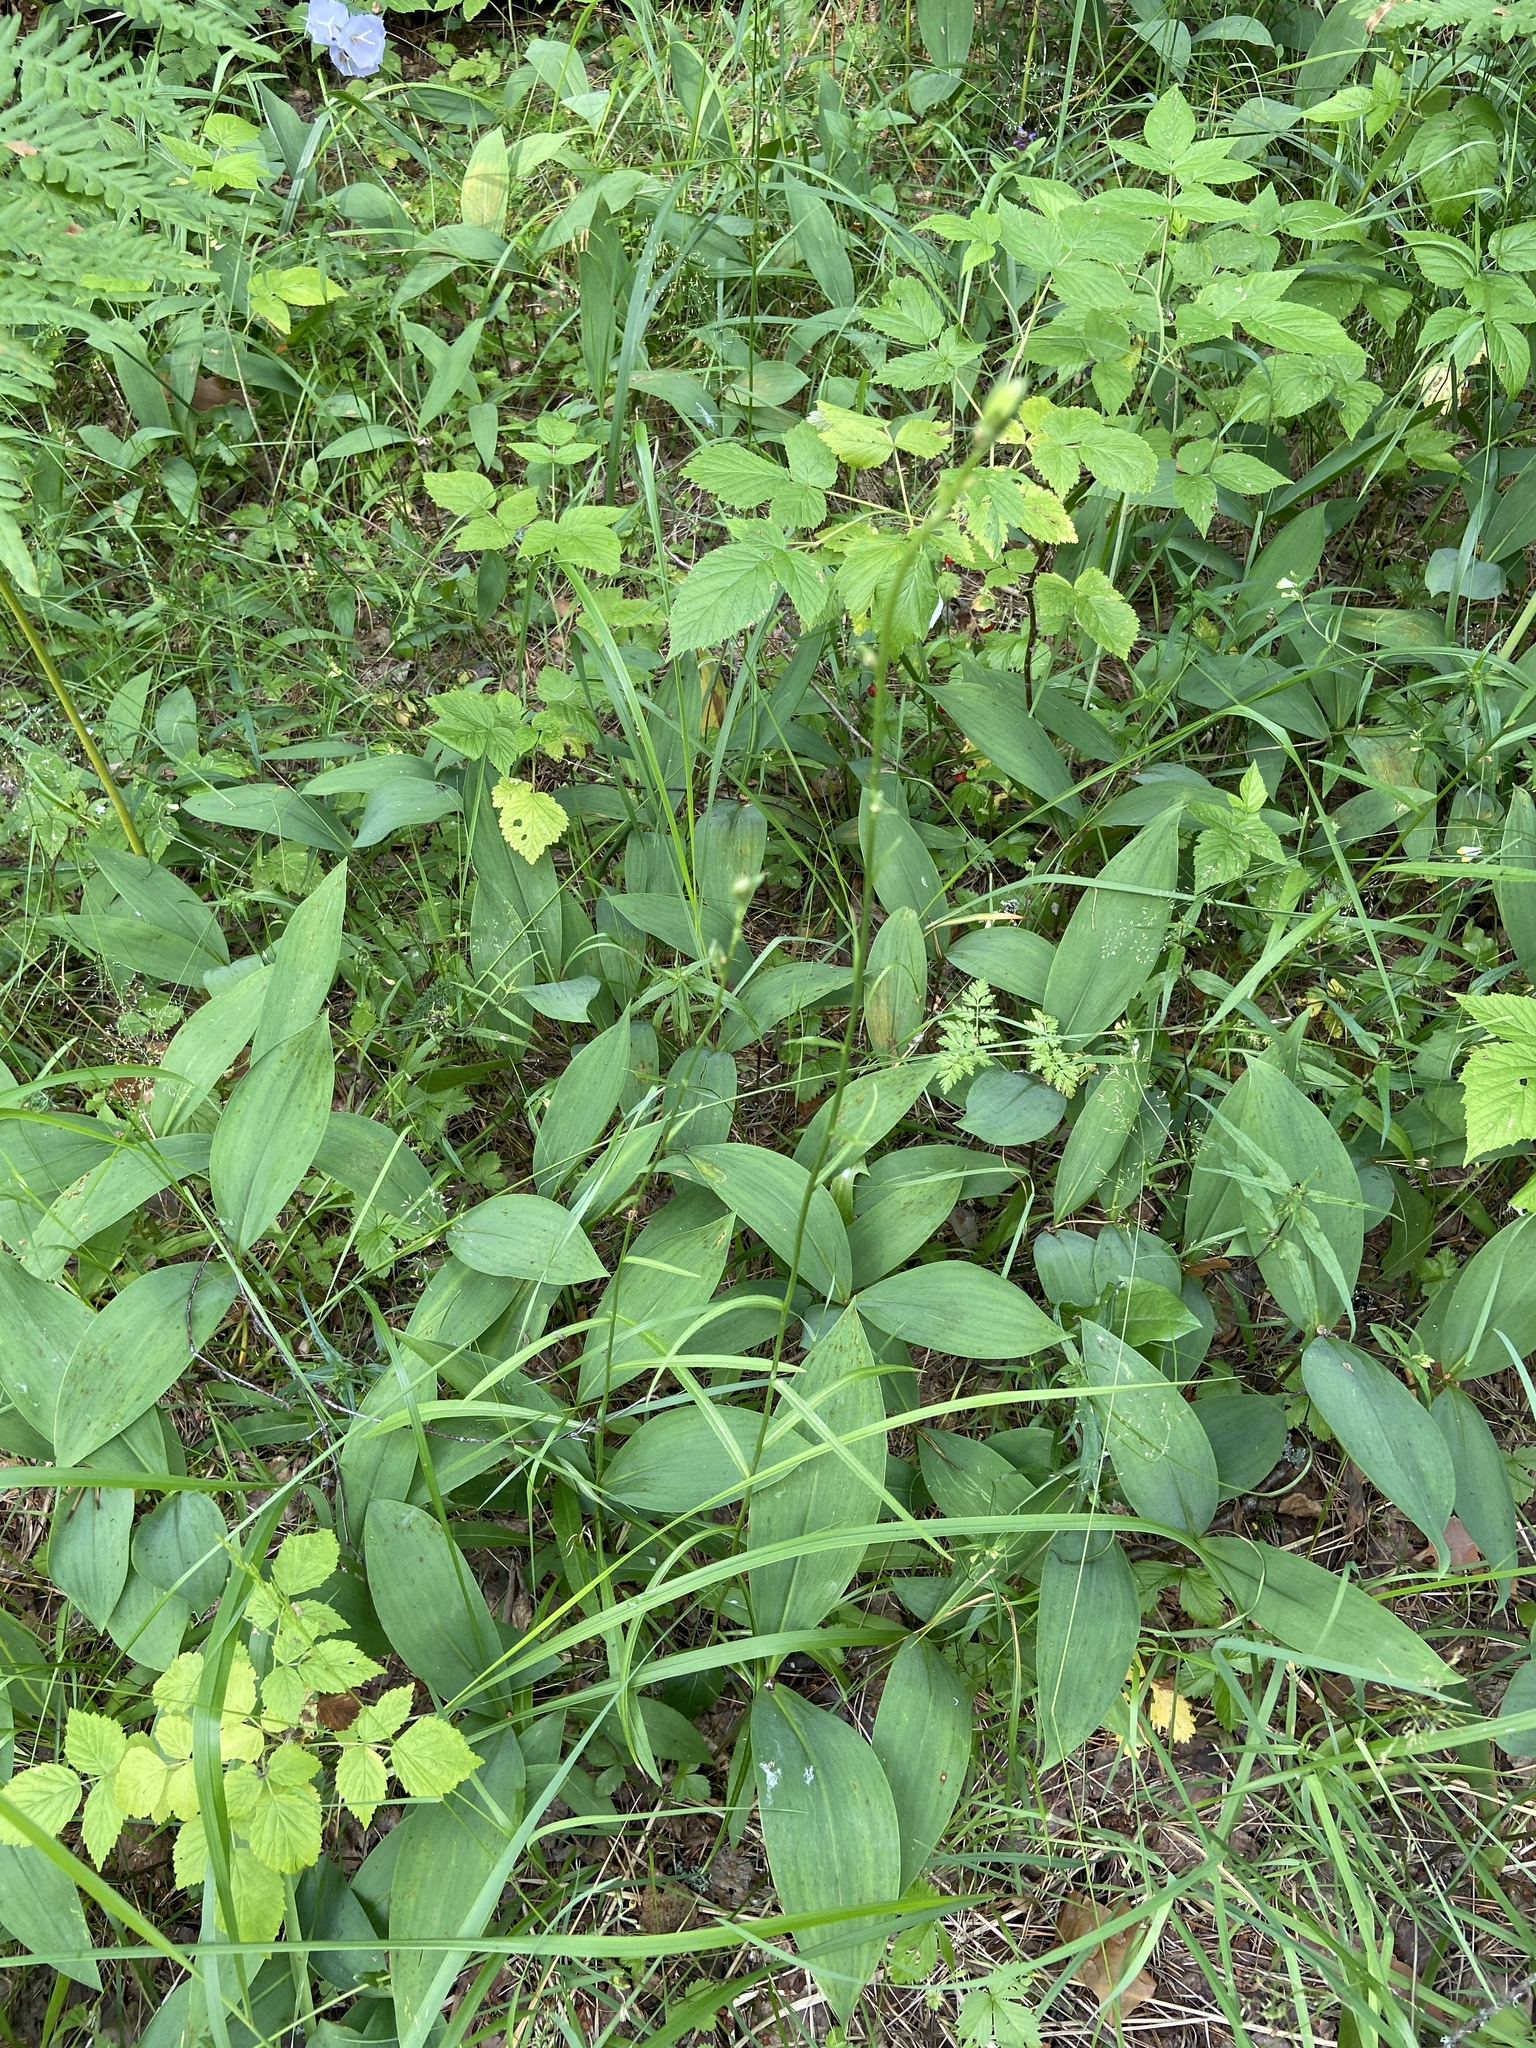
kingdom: Plantae
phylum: Tracheophyta
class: Liliopsida
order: Asparagales
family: Asparagaceae
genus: Convallaria
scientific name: Convallaria majalis
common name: Lily-of-the-valley
